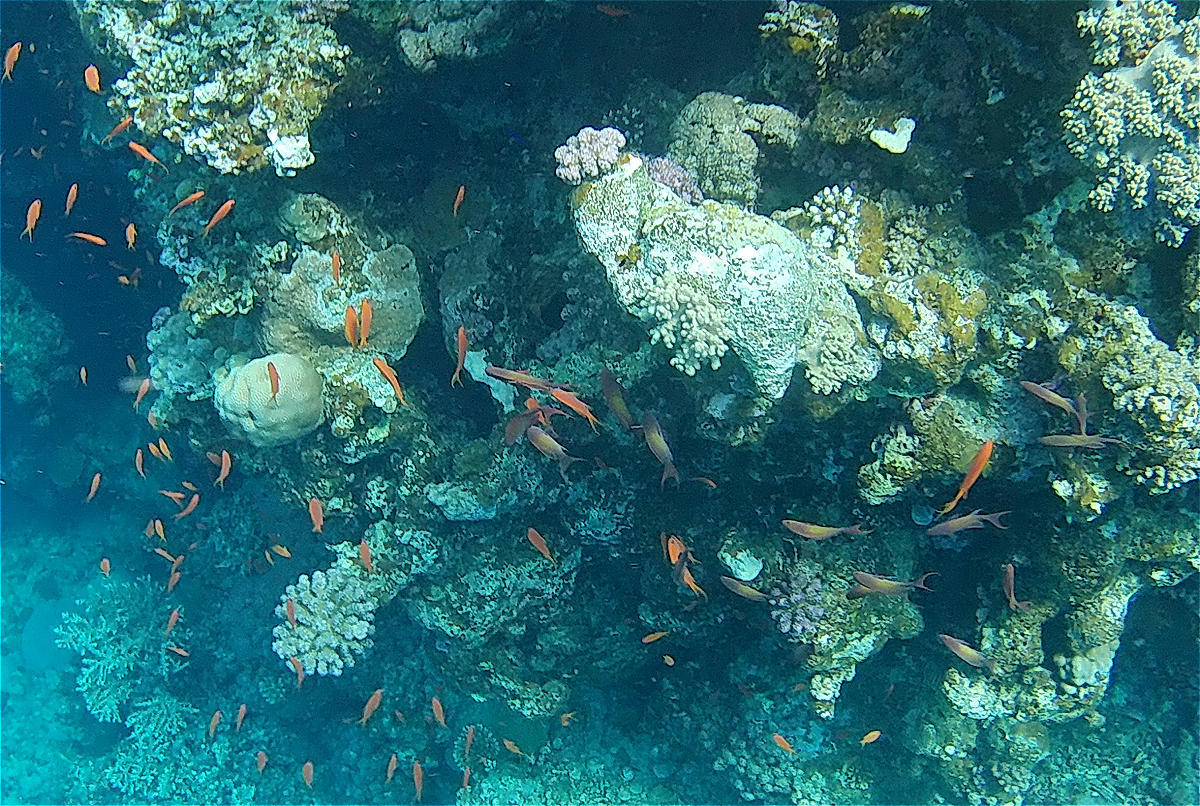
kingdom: Animalia
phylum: Chordata
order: Perciformes
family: Serranidae
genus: Pseudanthias
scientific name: Pseudanthias squamipinnis
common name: Scalefin anthias
